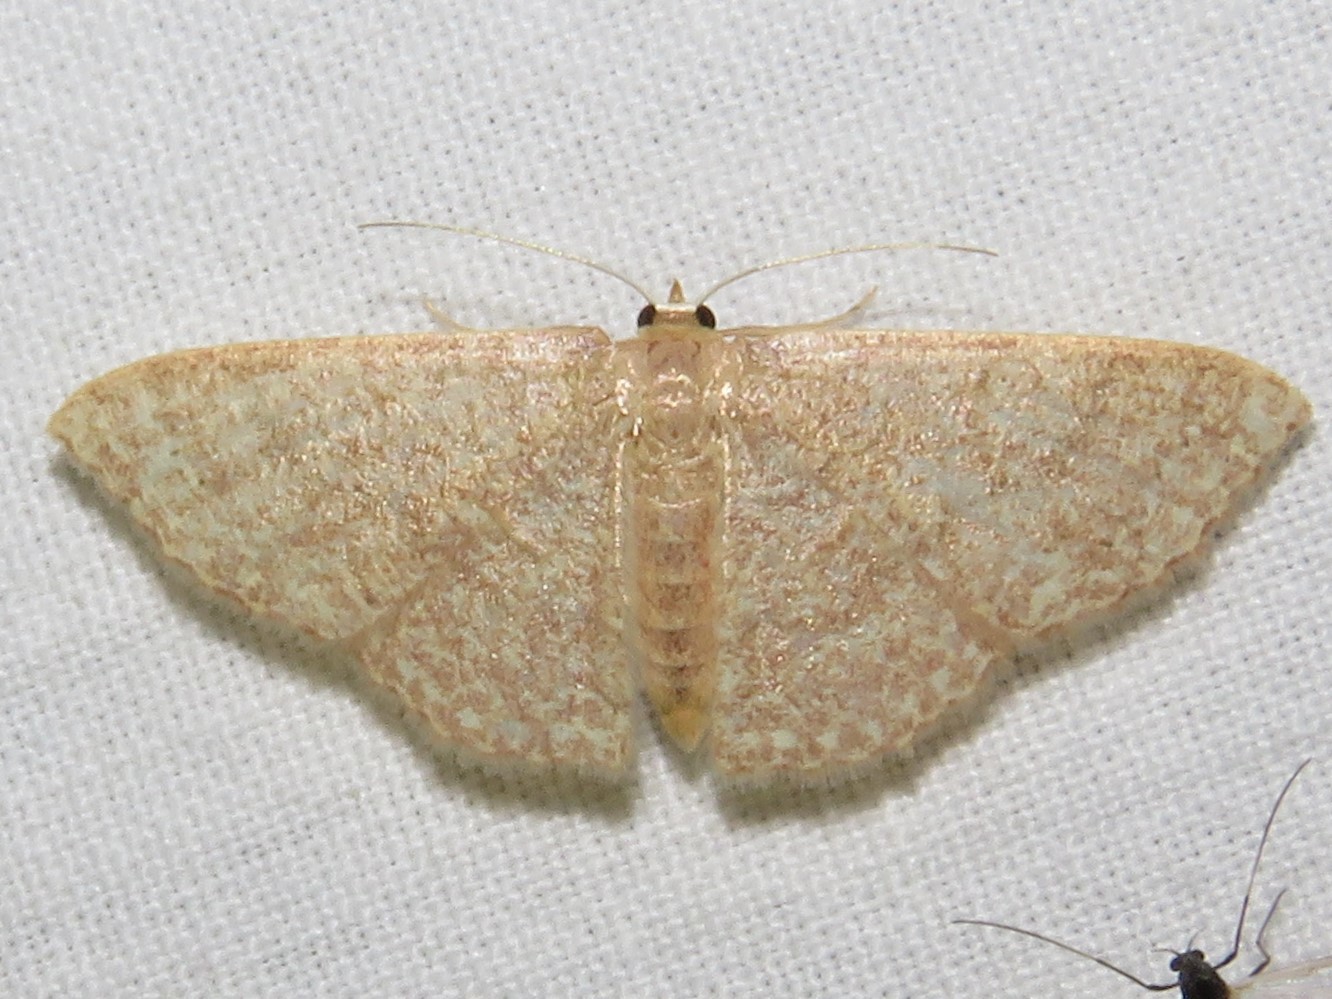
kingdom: Animalia
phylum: Arthropoda
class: Insecta
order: Lepidoptera
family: Geometridae
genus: Pleuroprucha
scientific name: Pleuroprucha insulsaria
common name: Common tan wave
